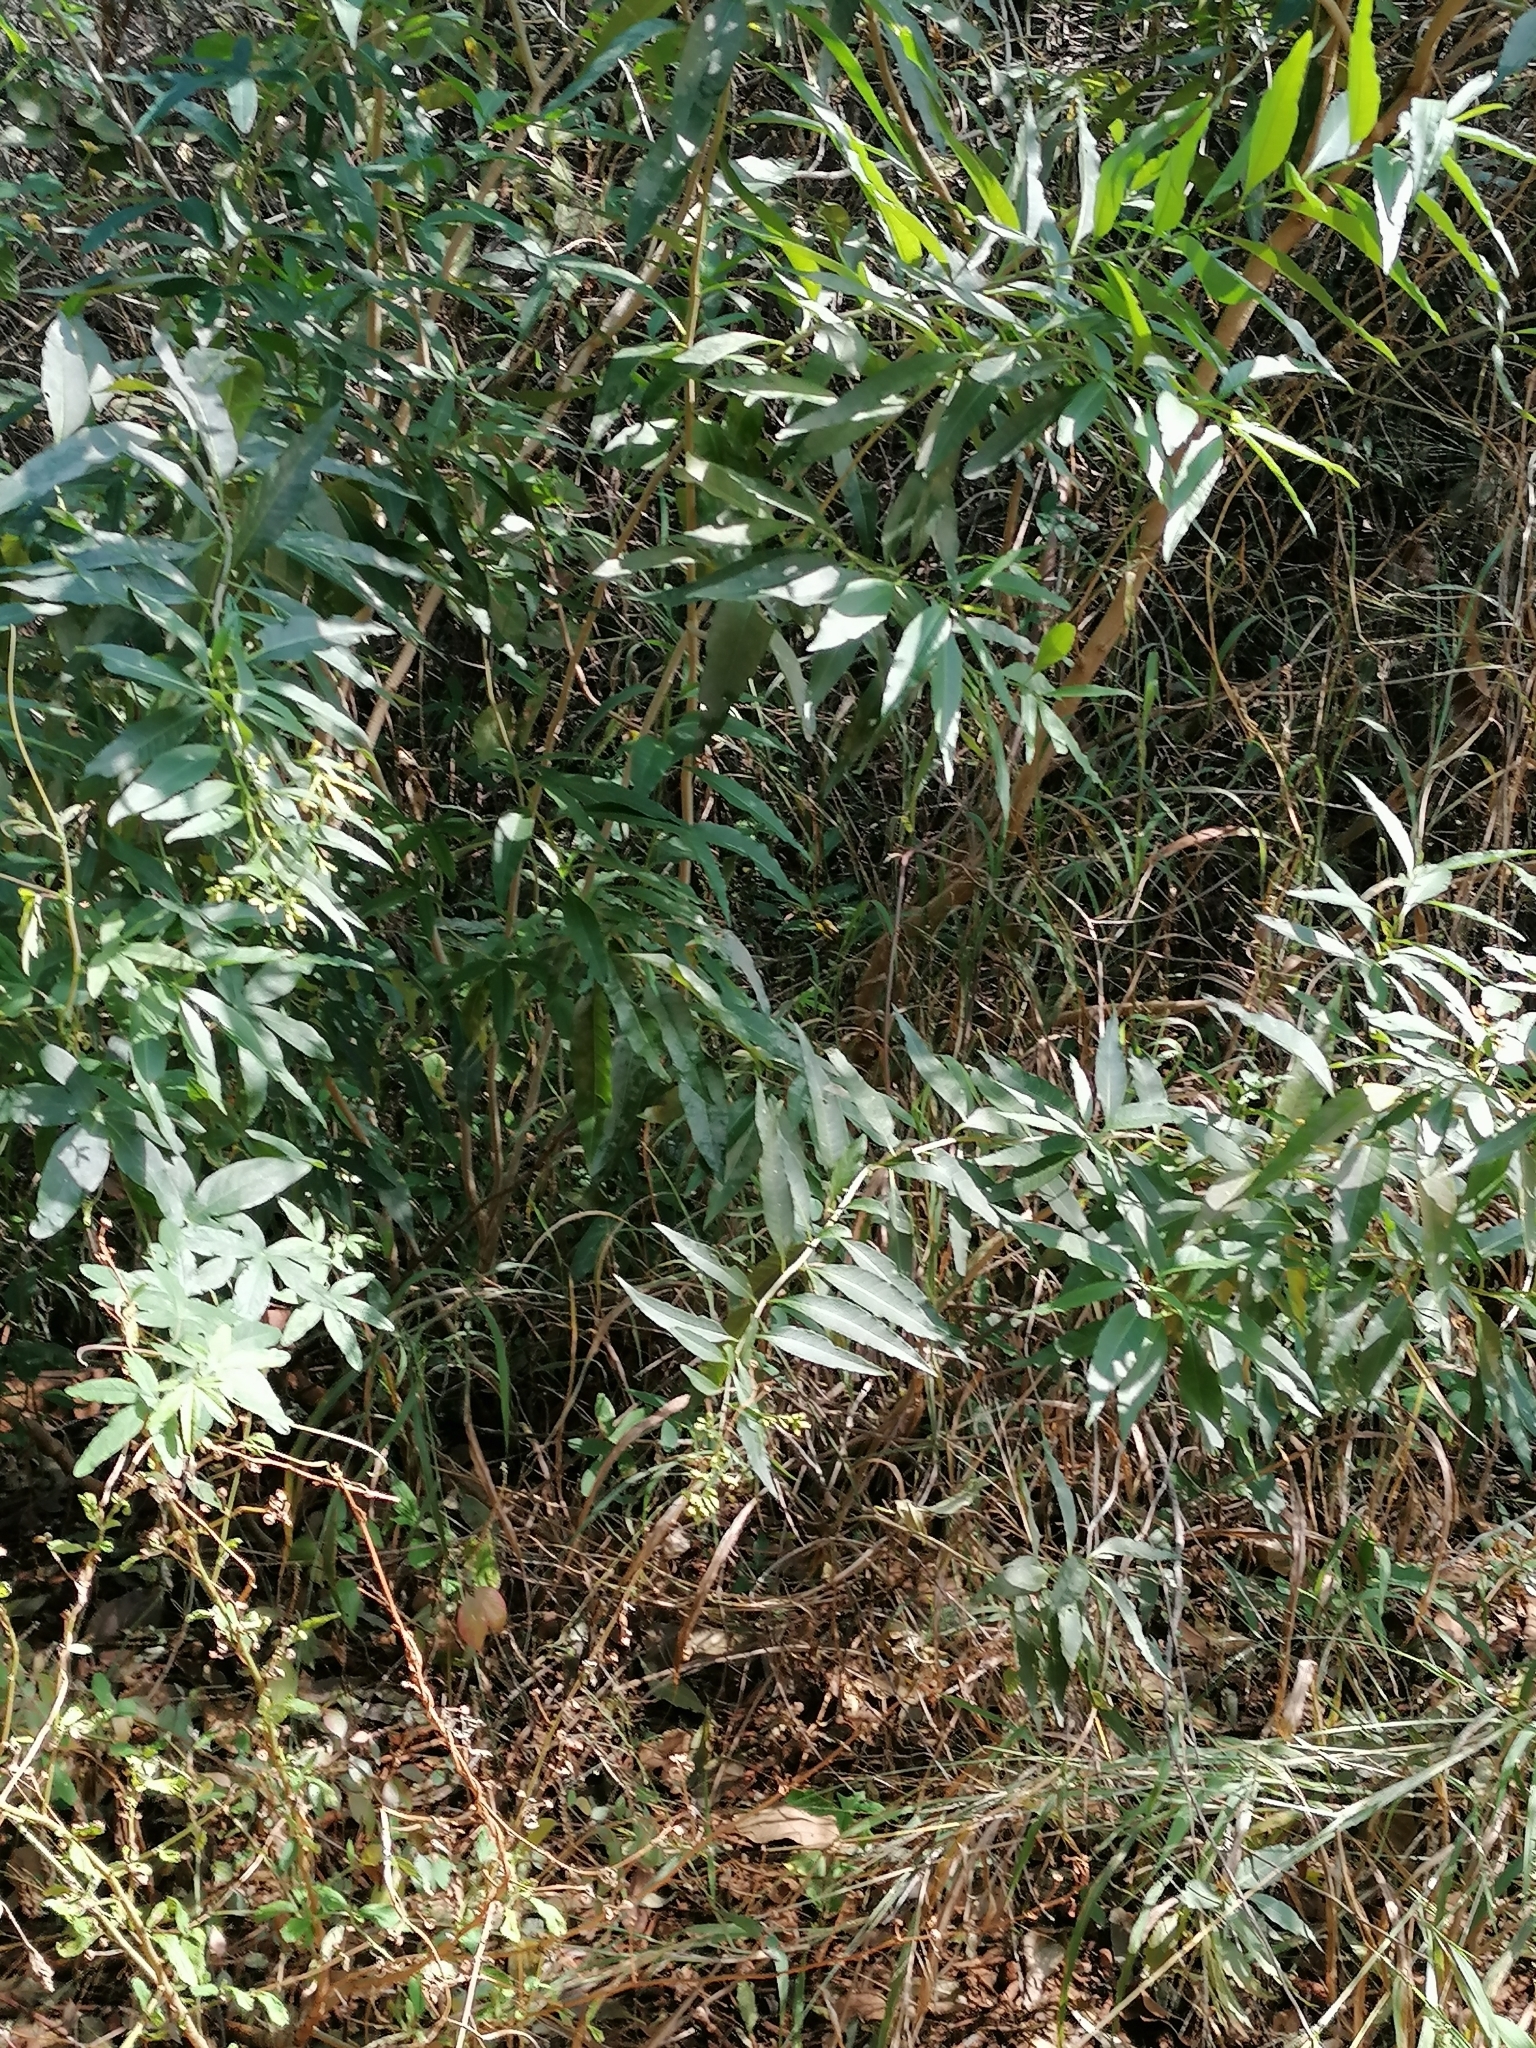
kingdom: Plantae
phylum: Tracheophyta
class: Magnoliopsida
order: Solanales
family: Solanaceae
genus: Cestrum
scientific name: Cestrum parqui
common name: Chilean cestrum
